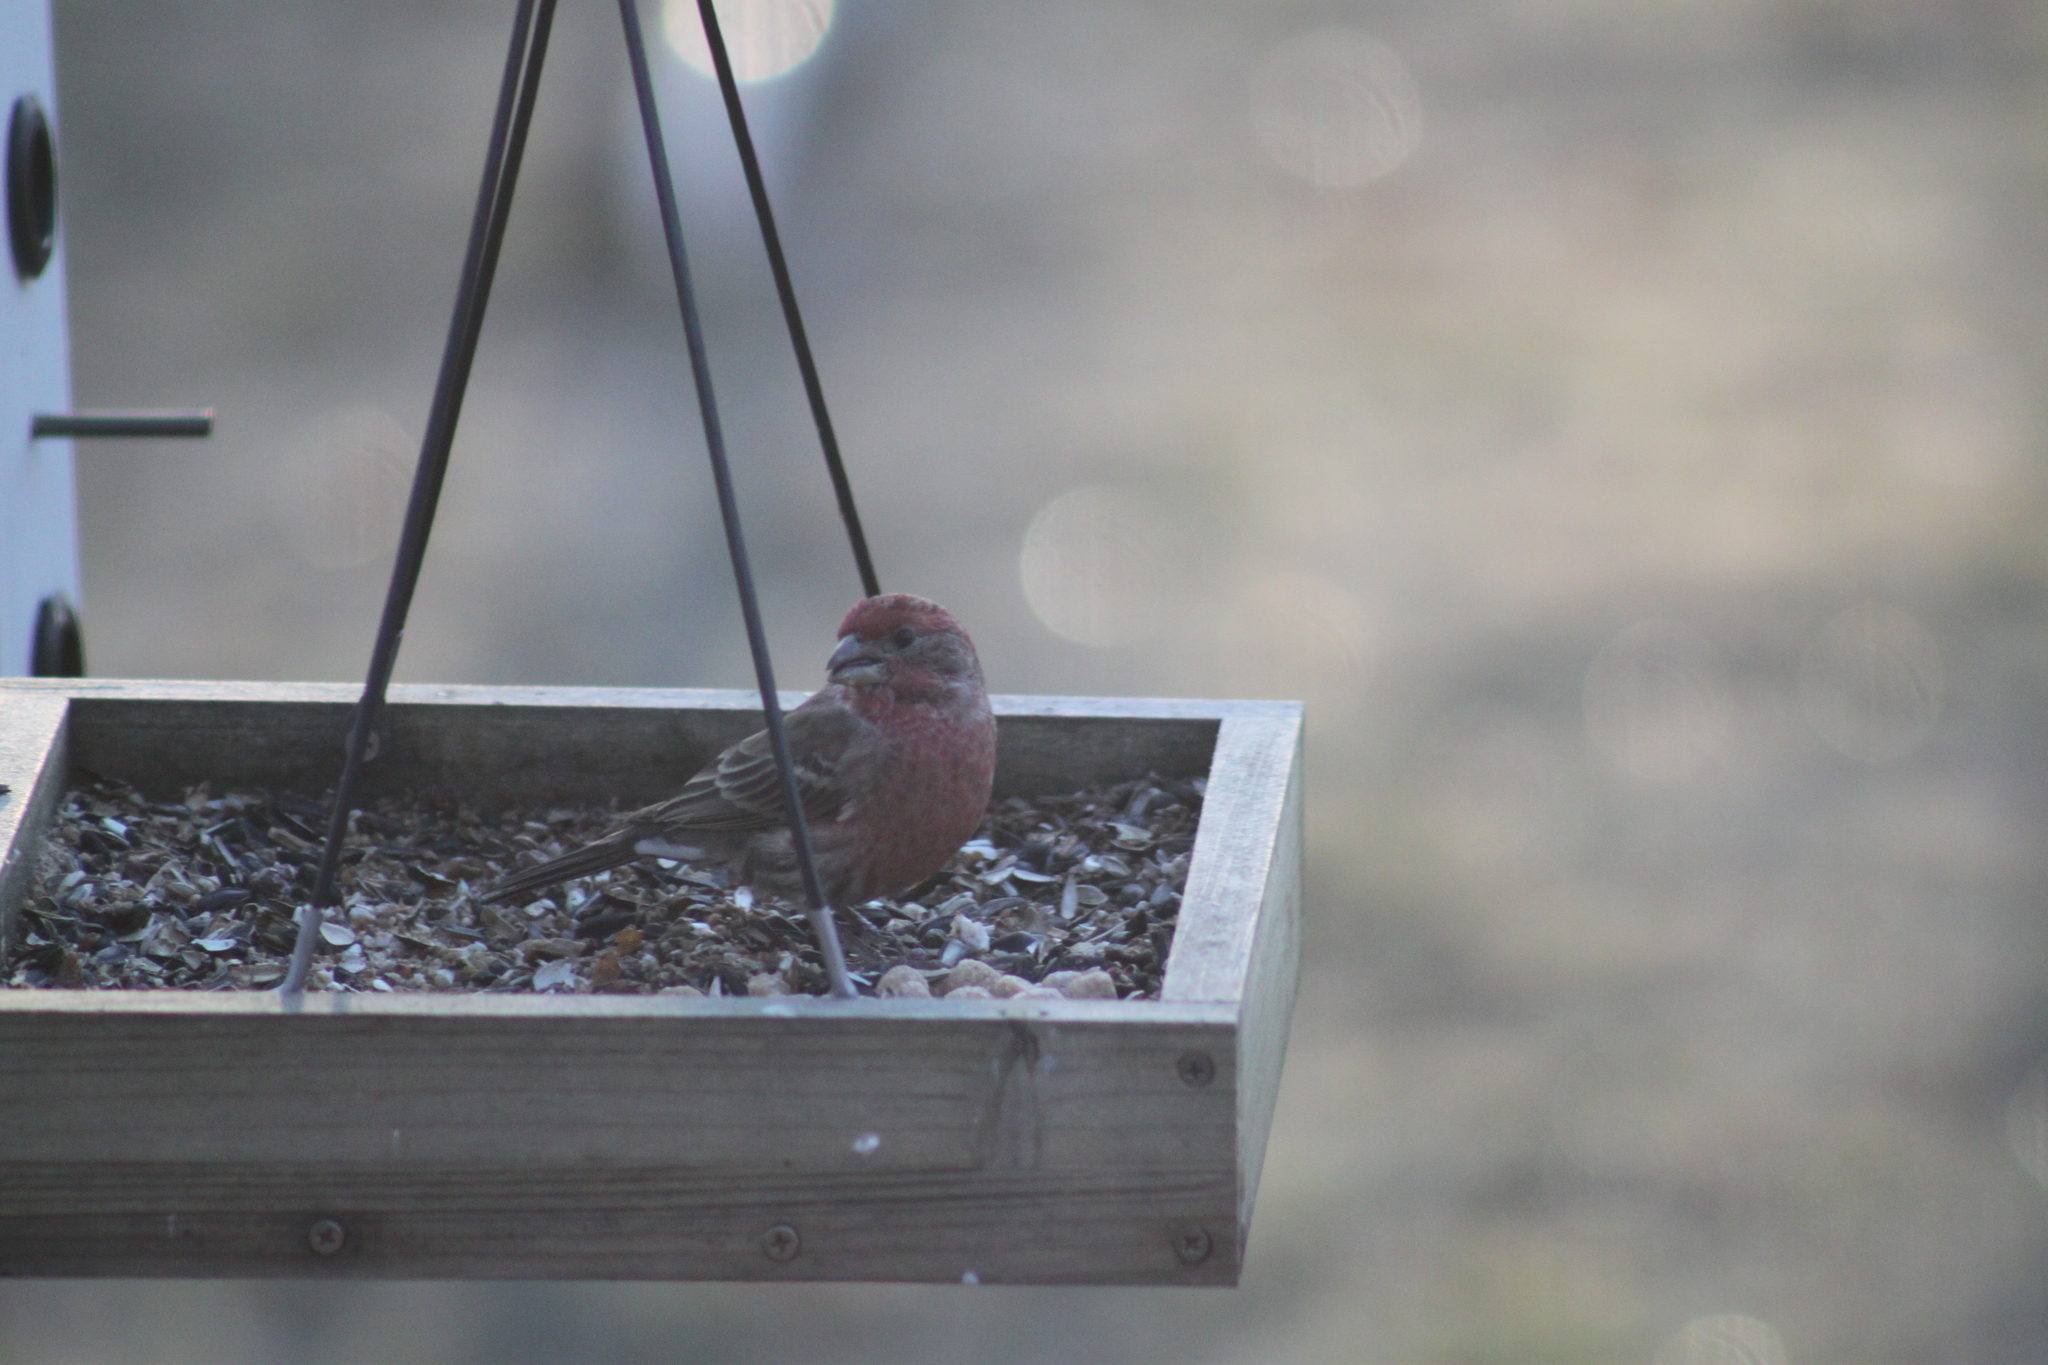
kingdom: Animalia
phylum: Chordata
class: Aves
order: Passeriformes
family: Fringillidae
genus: Haemorhous
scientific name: Haemorhous mexicanus
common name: House finch
